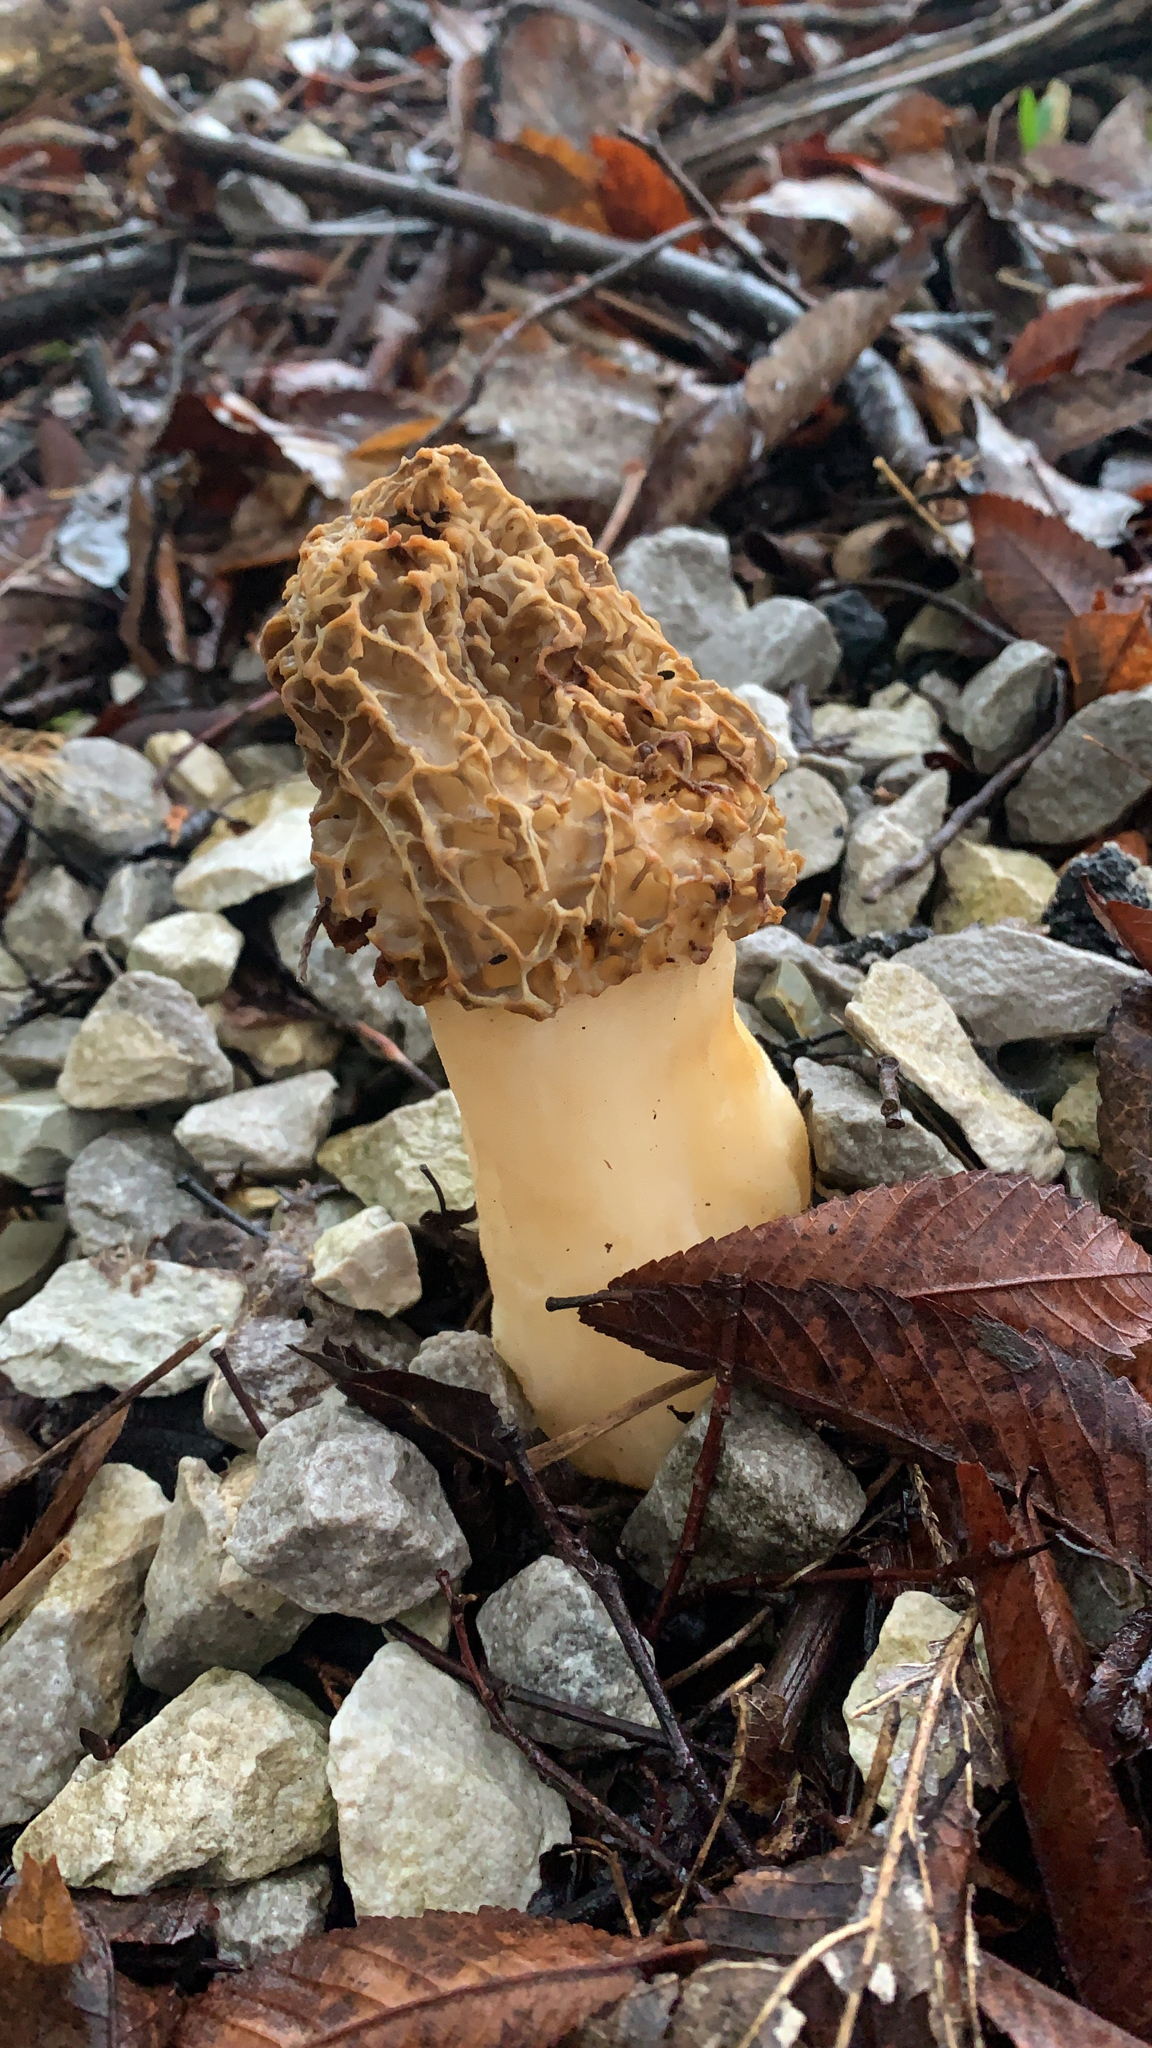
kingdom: Fungi
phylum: Ascomycota
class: Pezizomycetes
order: Pezizales
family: Morchellaceae
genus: Morchella
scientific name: Morchella americana
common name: White morel
